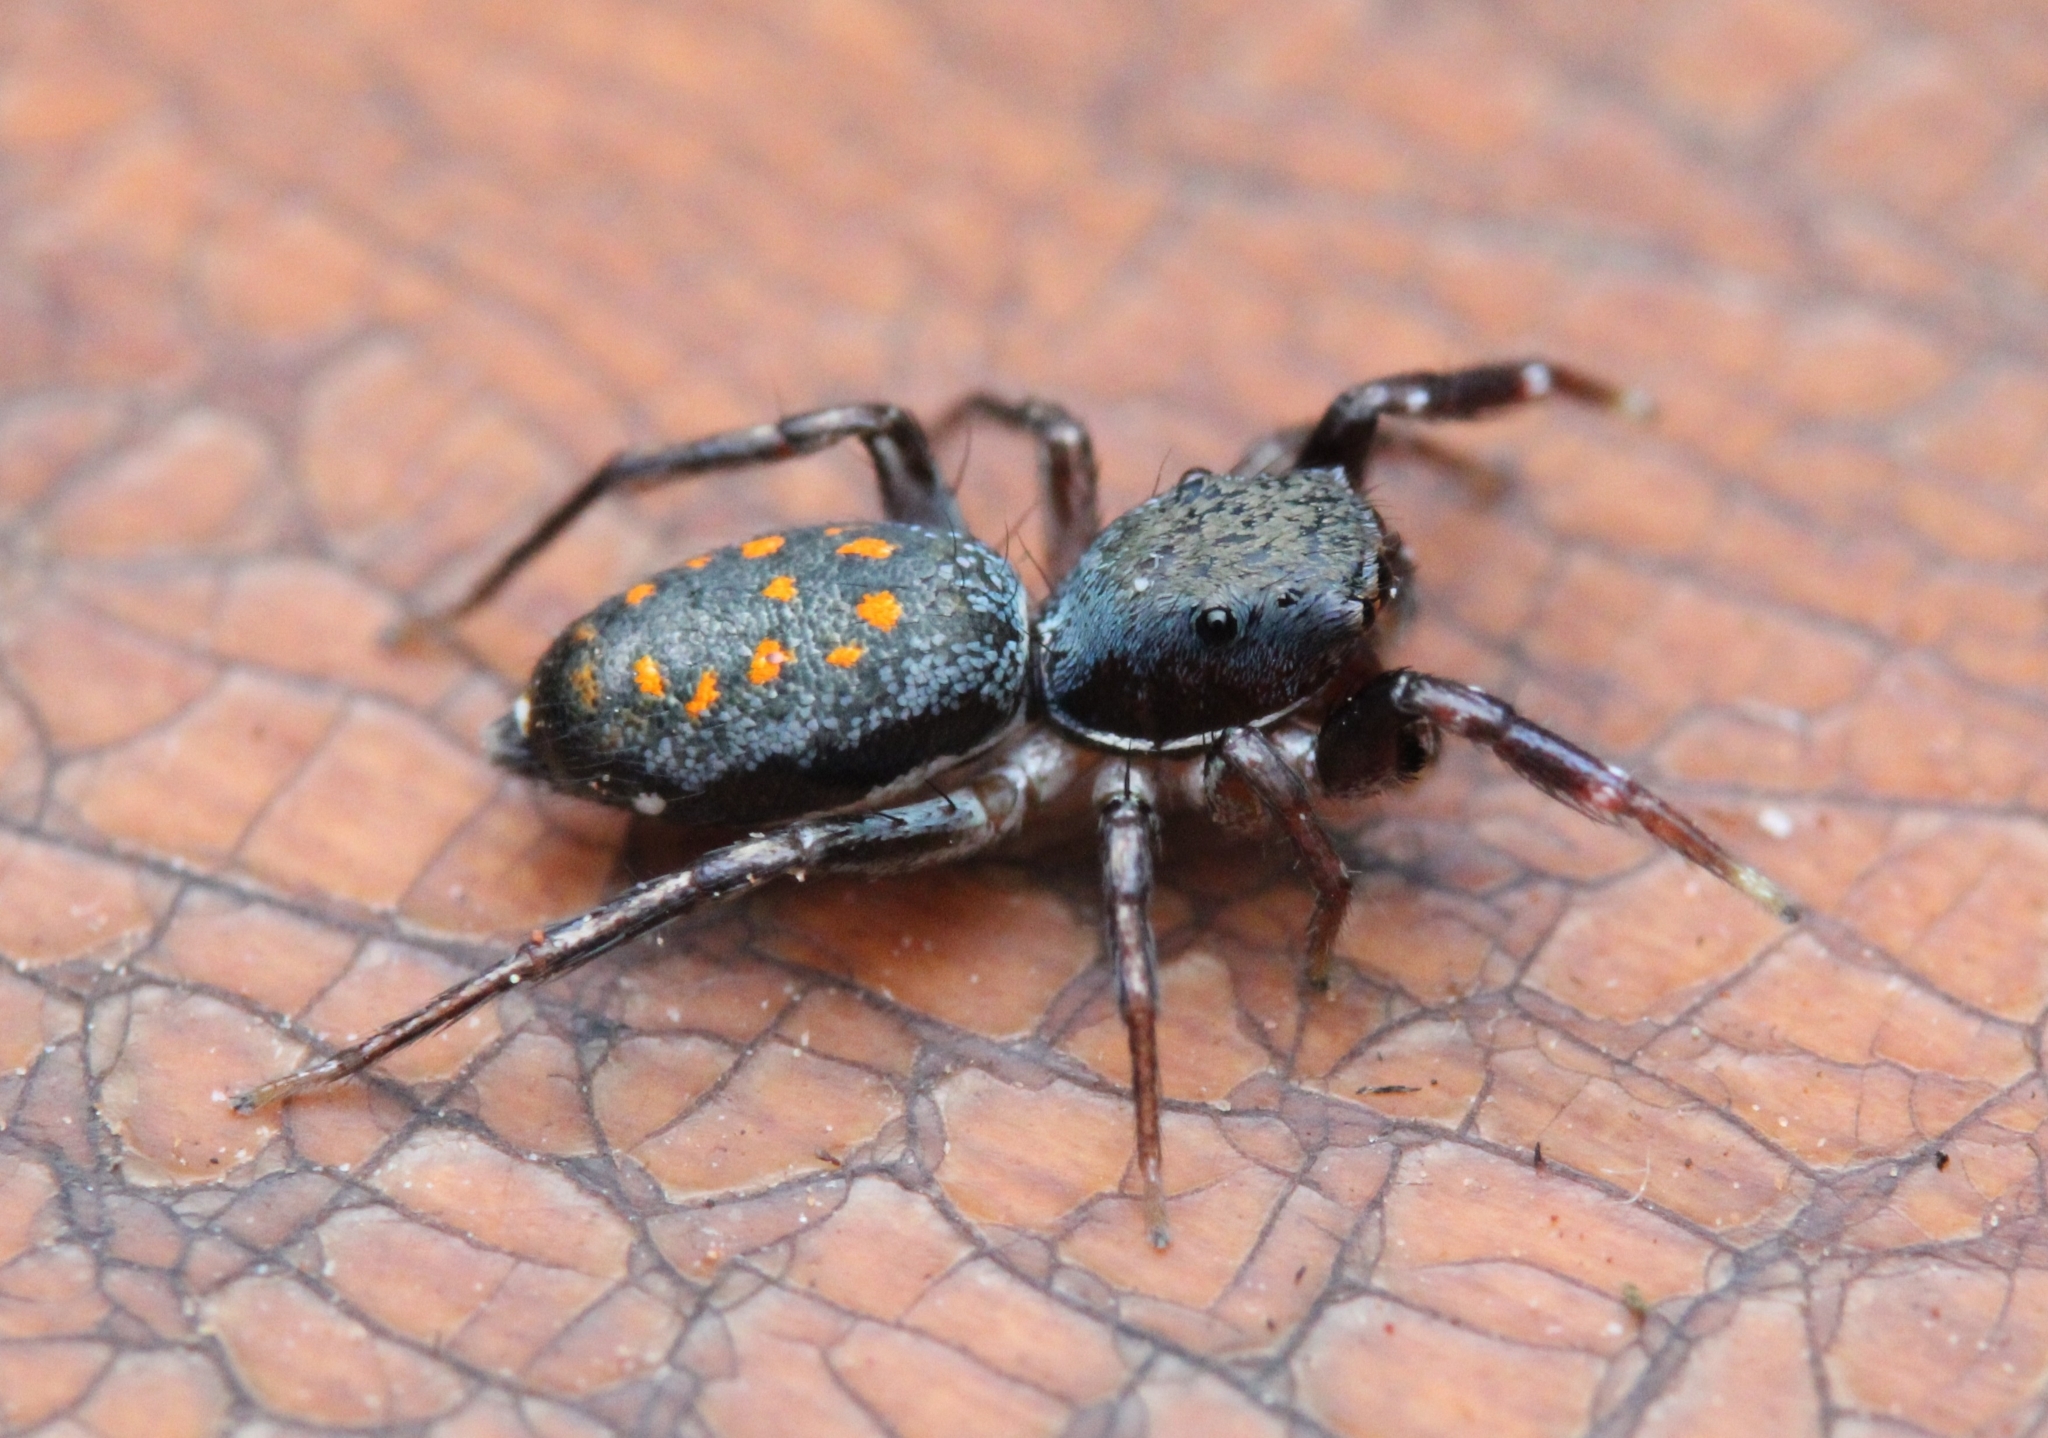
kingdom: Animalia
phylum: Arthropoda
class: Arachnida
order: Araneae
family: Salticidae
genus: Natta
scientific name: Natta horizontalis
